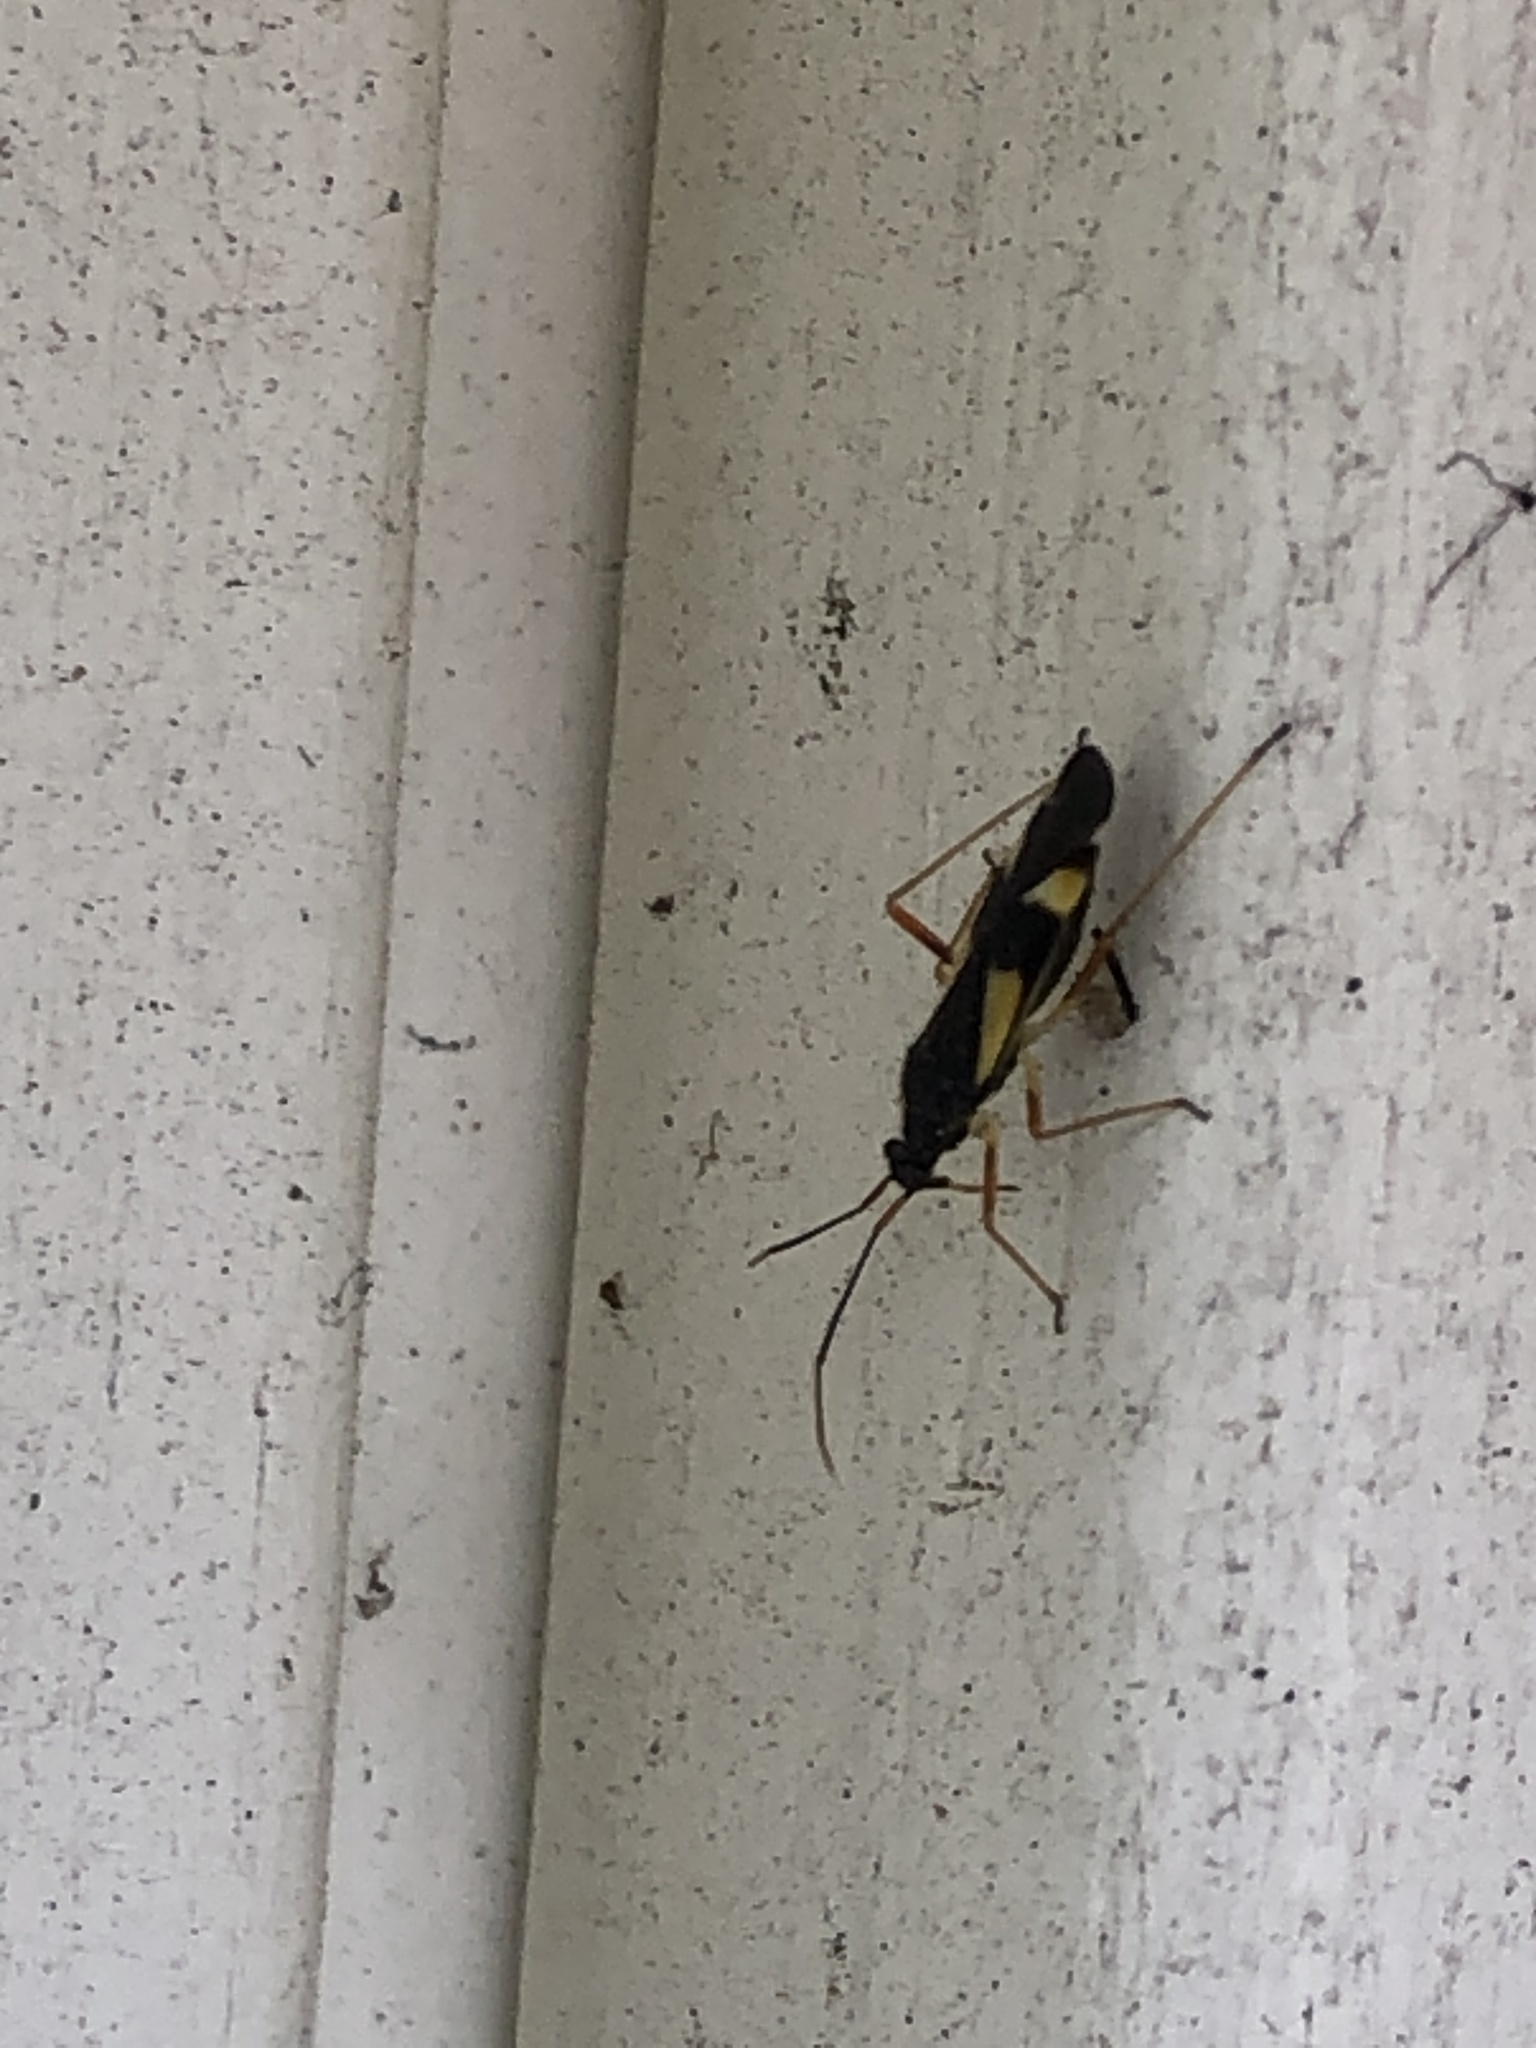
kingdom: Animalia
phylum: Arthropoda
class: Insecta
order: Hemiptera
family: Miridae
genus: Dryophilocoris
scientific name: Dryophilocoris flavoquadrimaculatus
